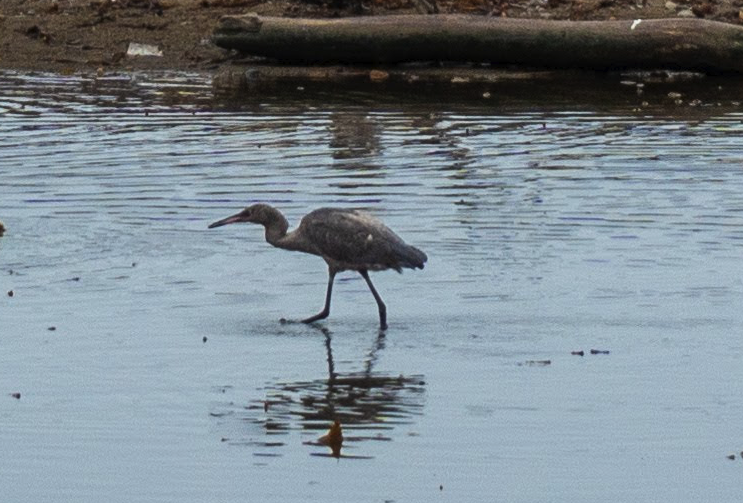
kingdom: Animalia
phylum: Chordata
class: Aves
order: Pelecaniformes
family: Ardeidae
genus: Egretta
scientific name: Egretta rufescens
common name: Reddish egret
